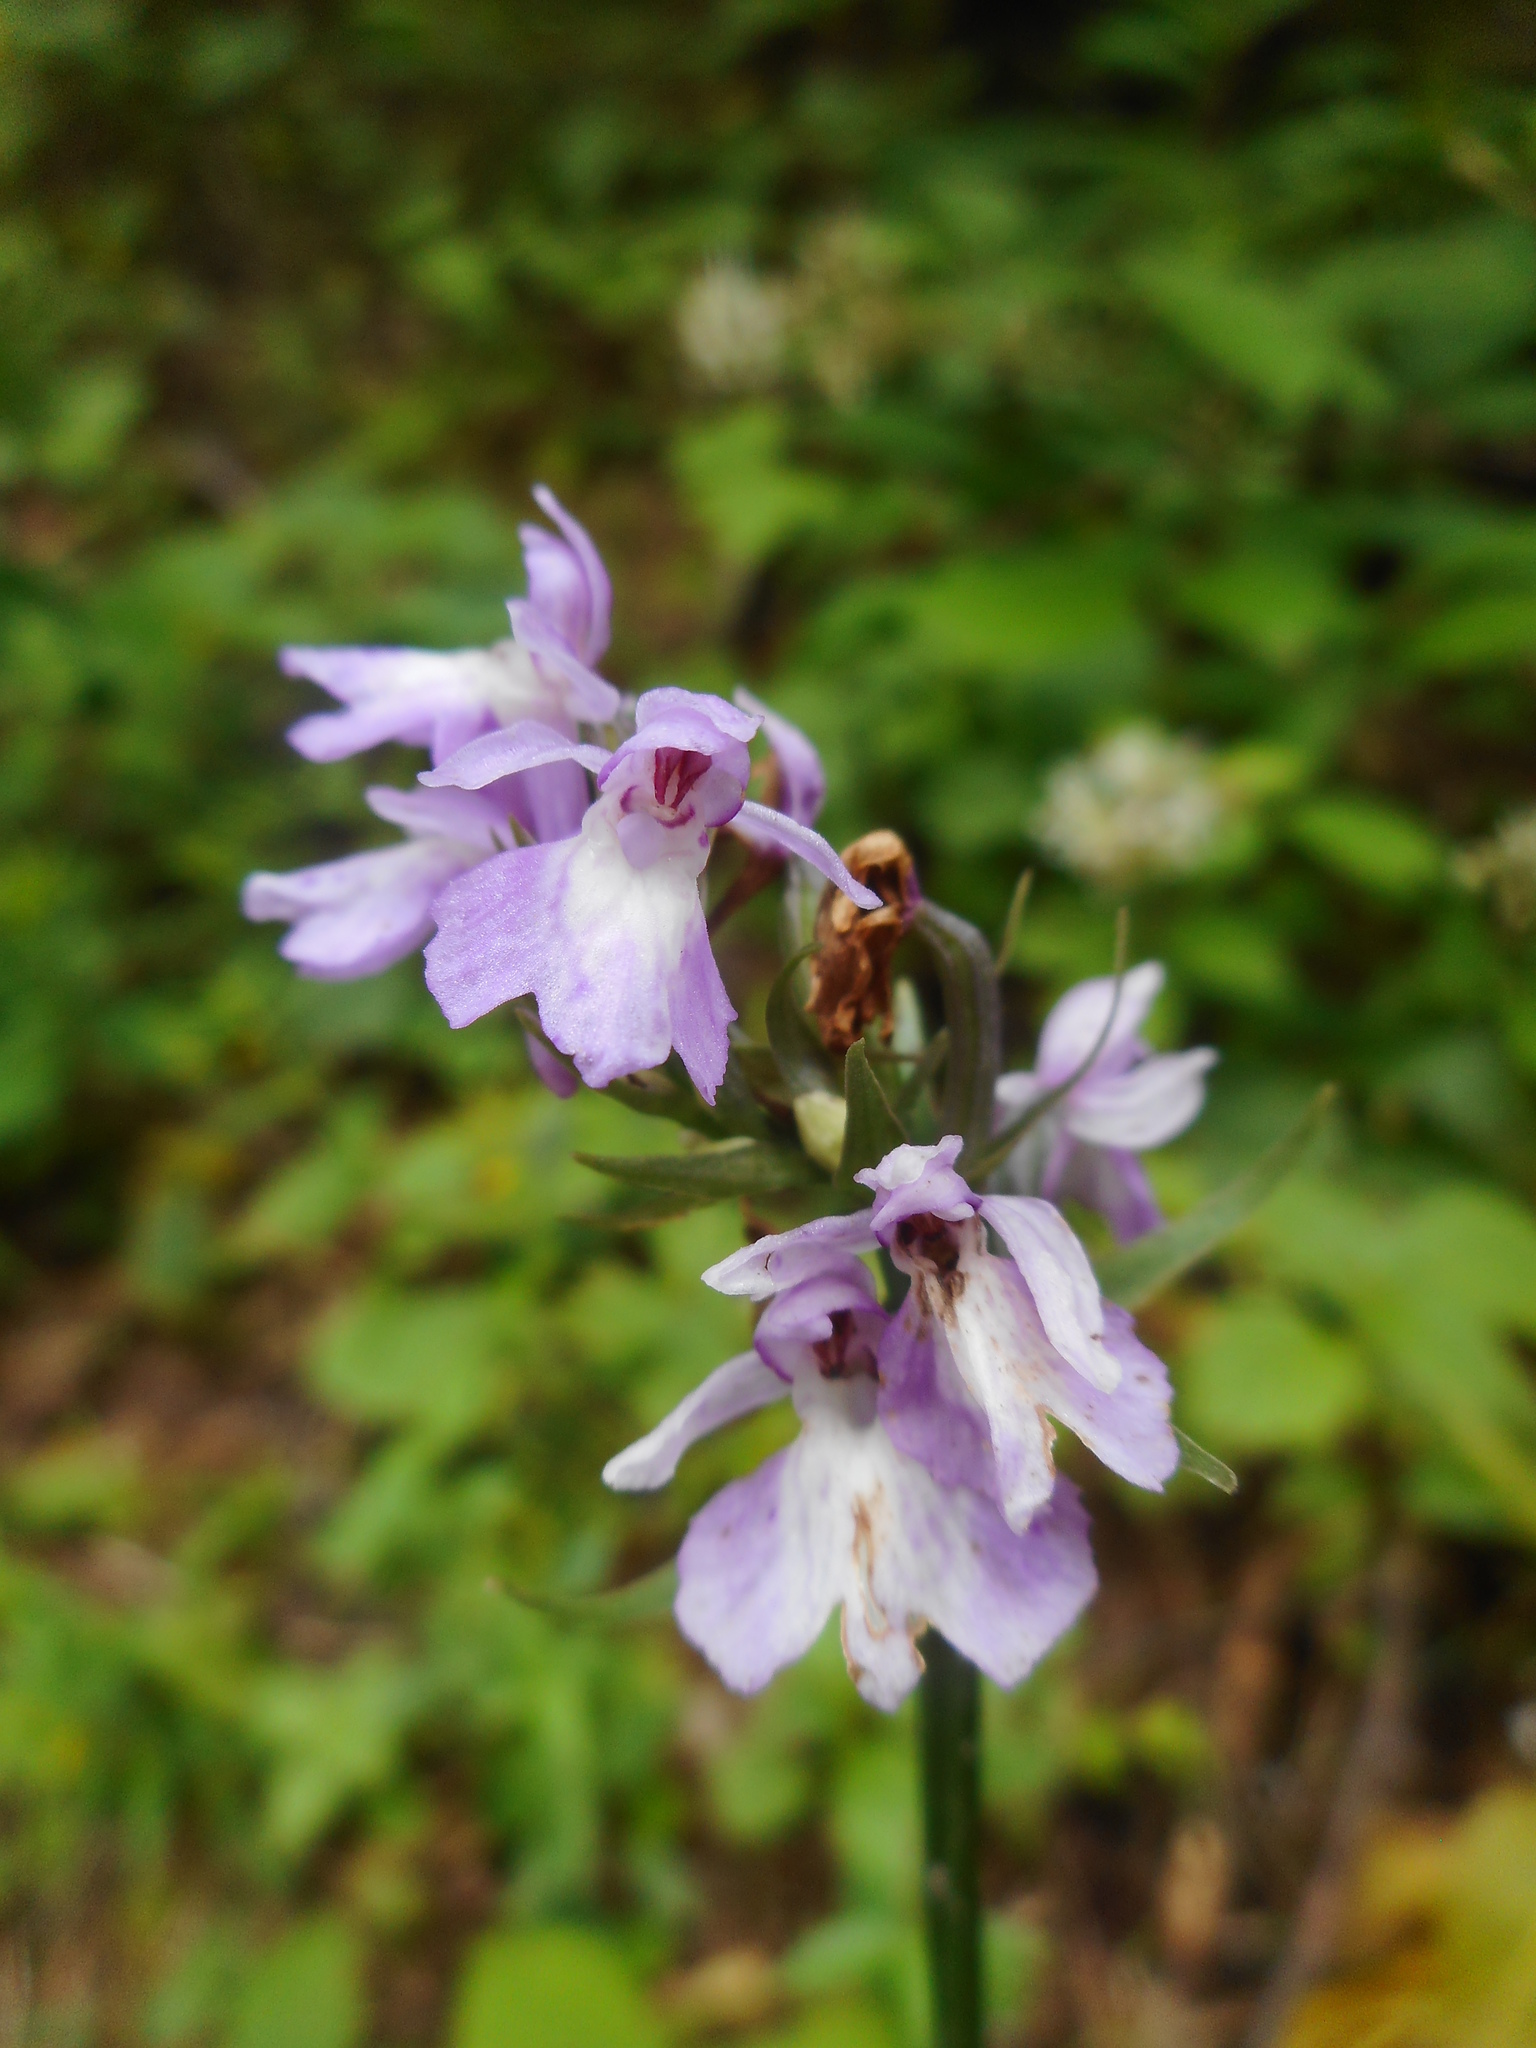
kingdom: Plantae
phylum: Tracheophyta
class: Liliopsida
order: Asparagales
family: Orchidaceae
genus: Dactylorhiza
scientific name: Dactylorhiza maculata
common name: Heath spotted-orchid
